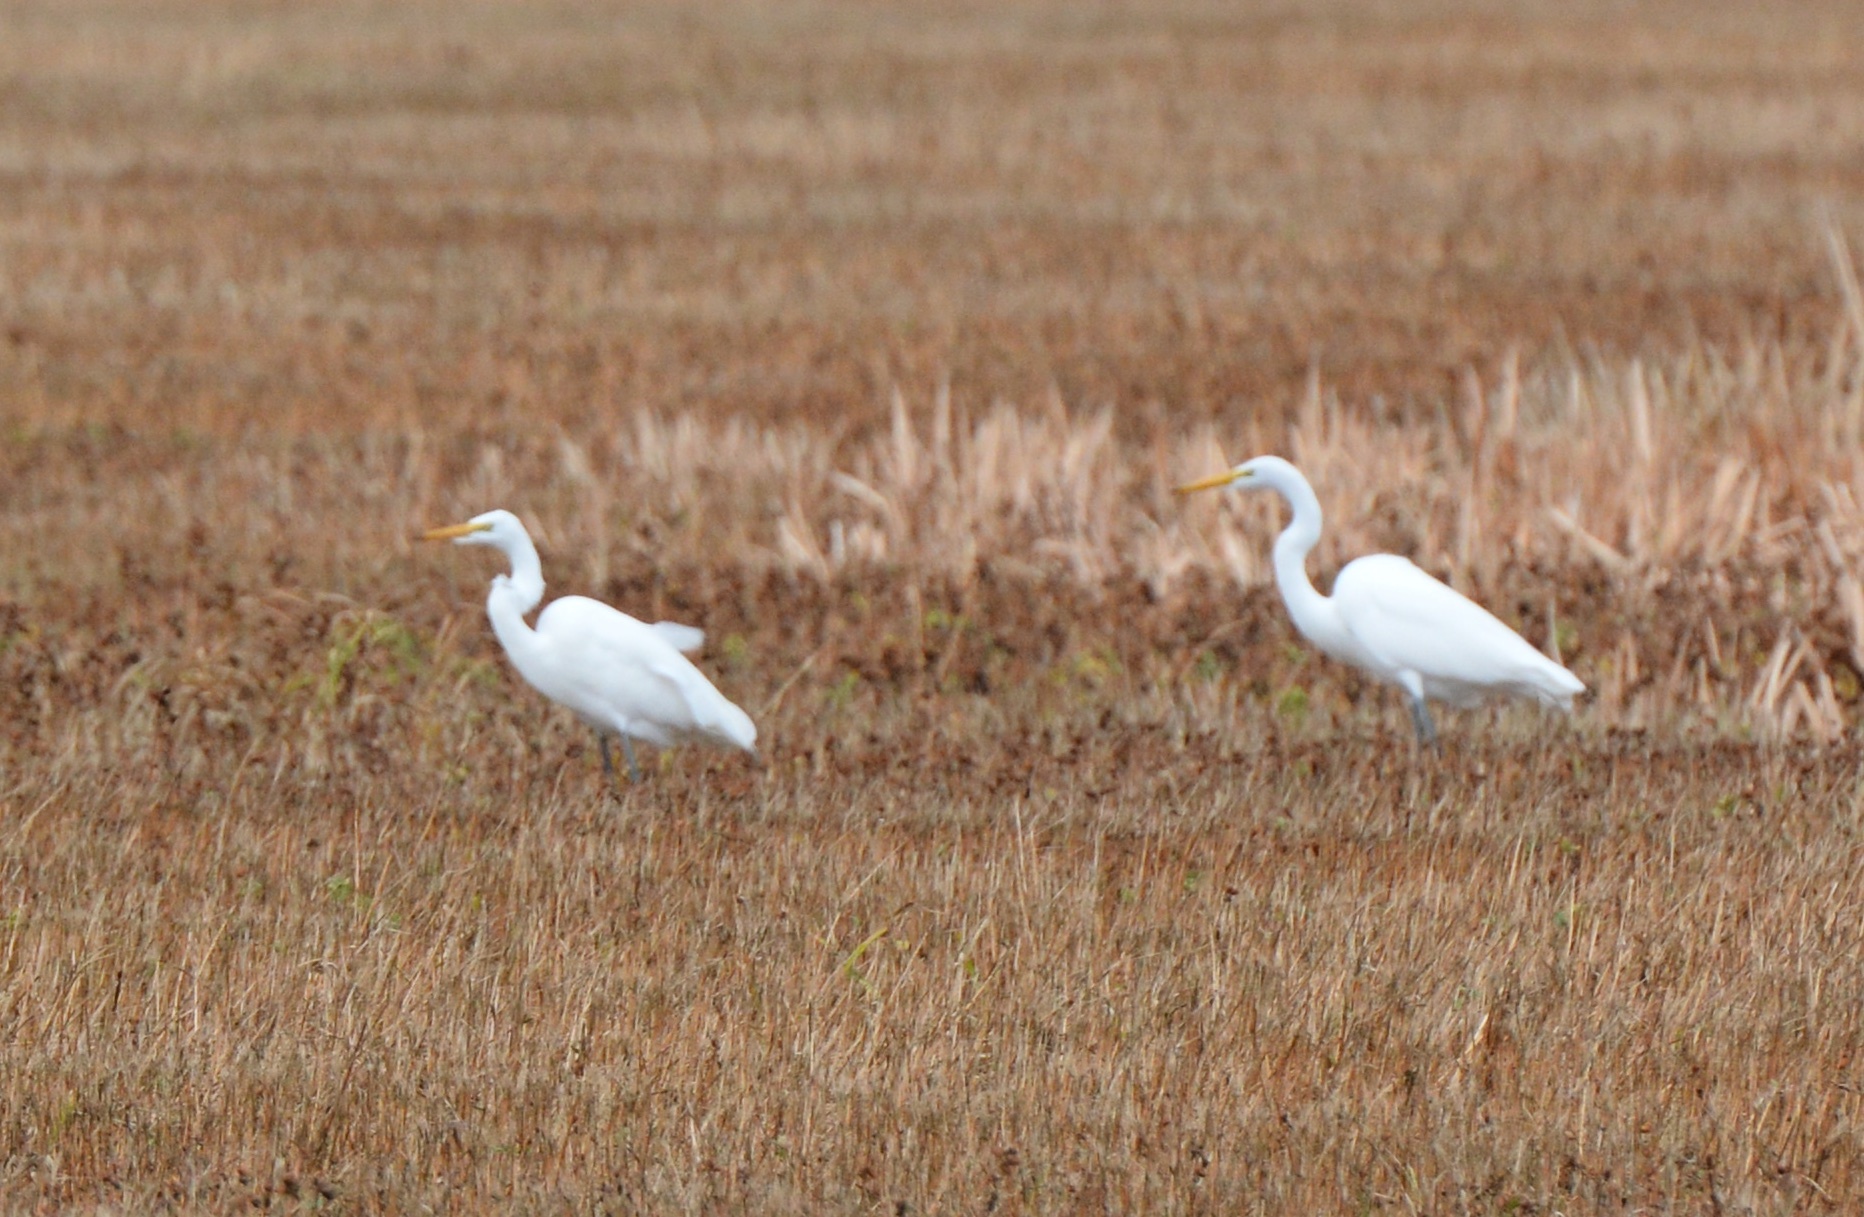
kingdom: Animalia
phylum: Chordata
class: Aves
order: Pelecaniformes
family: Ardeidae
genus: Ardea
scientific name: Ardea alba
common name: Great egret
